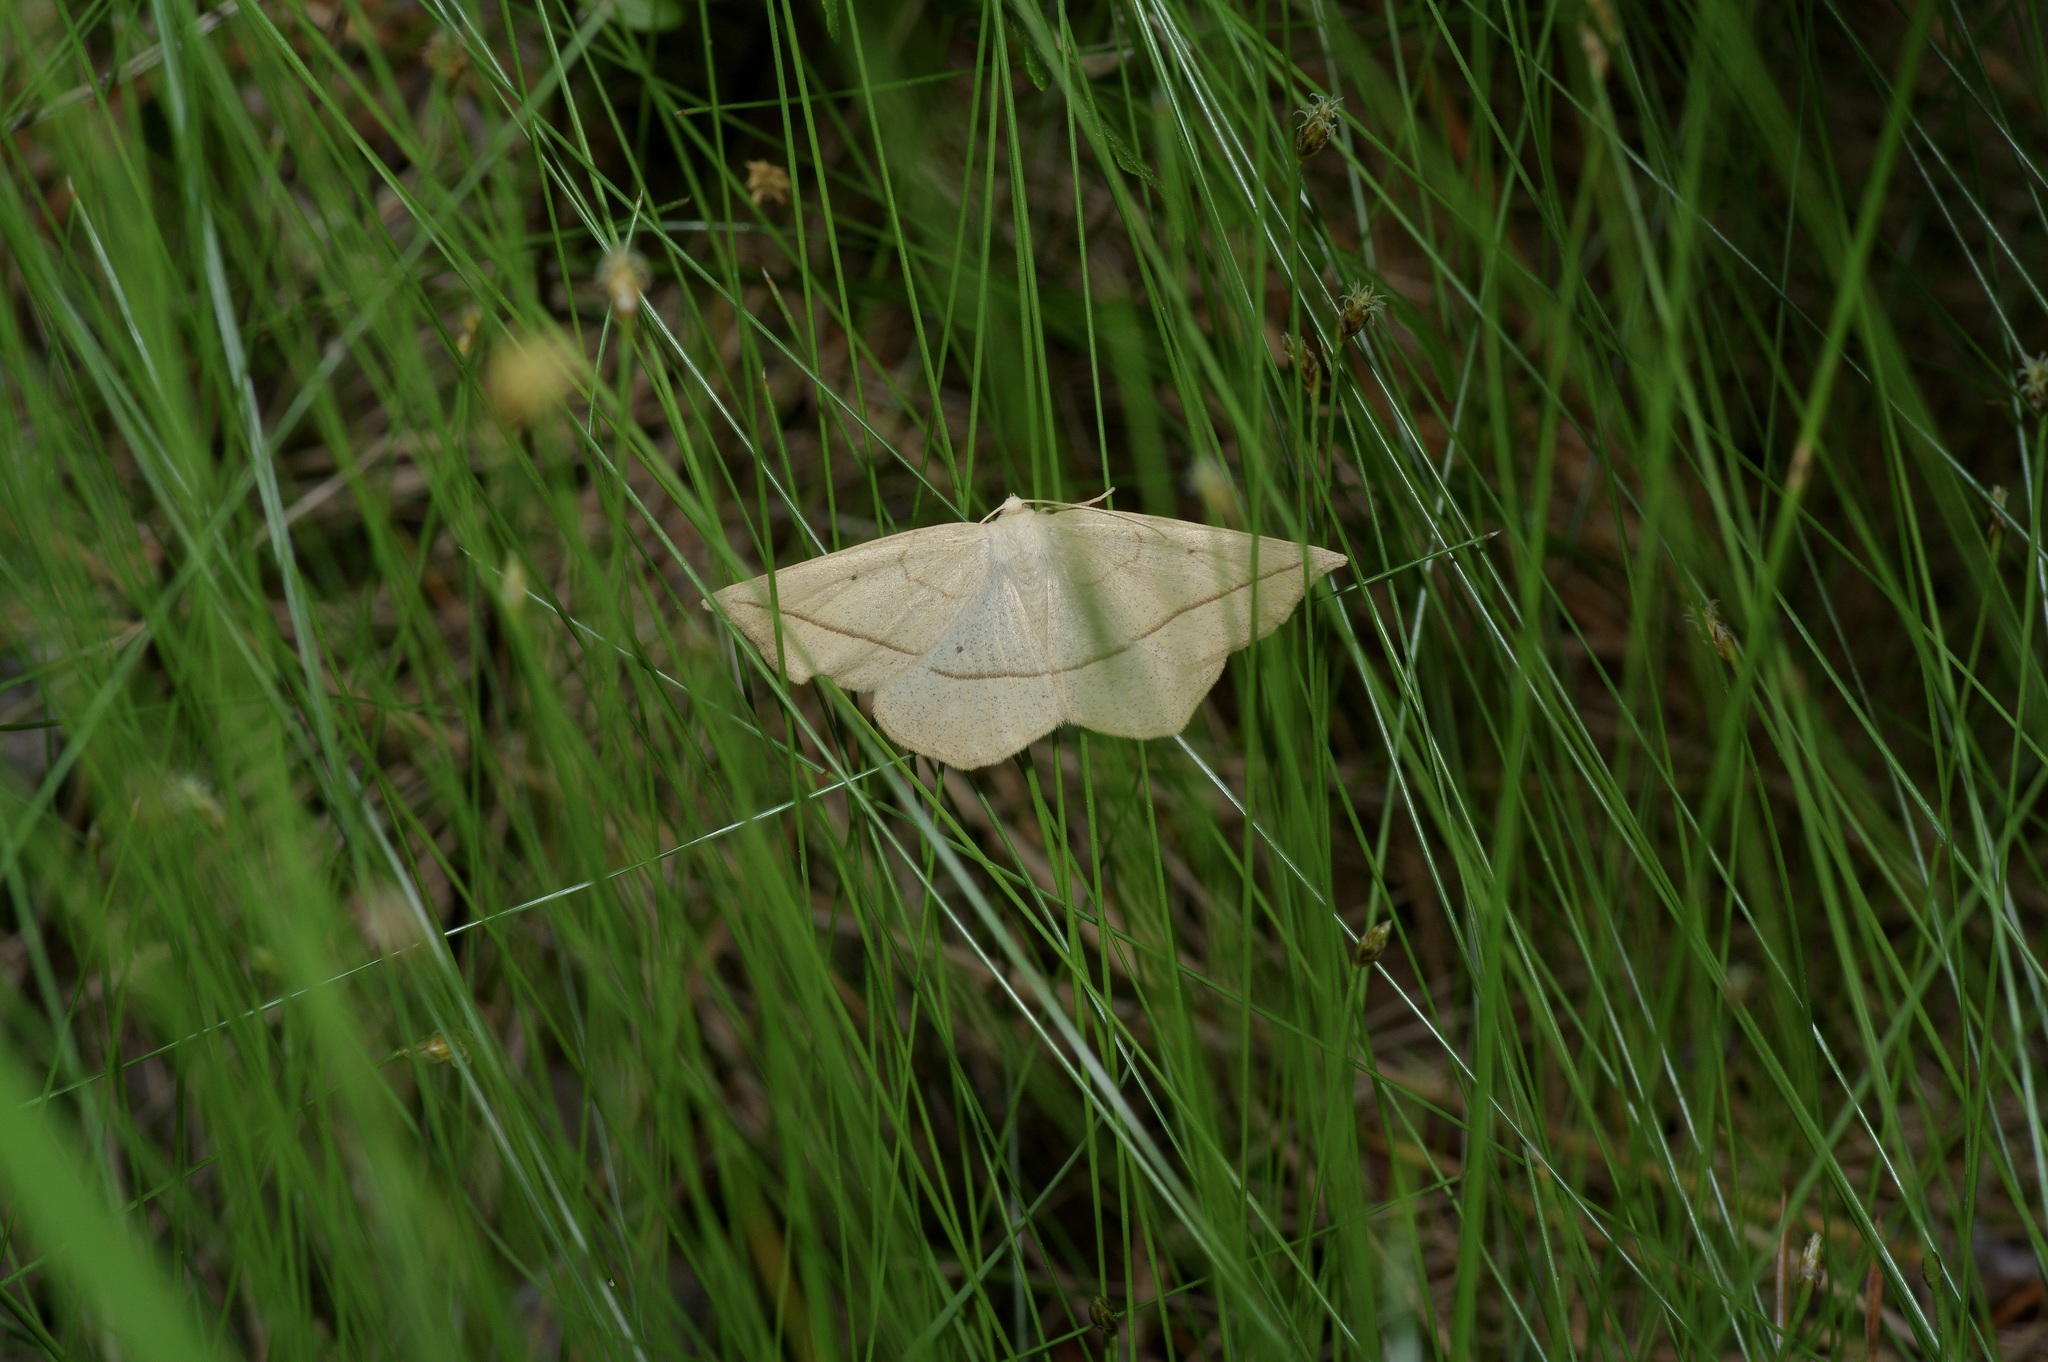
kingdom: Animalia
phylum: Arthropoda
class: Insecta
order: Lepidoptera
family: Geometridae
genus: Eusarca
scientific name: Eusarca confusaria
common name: Confused eusarca
